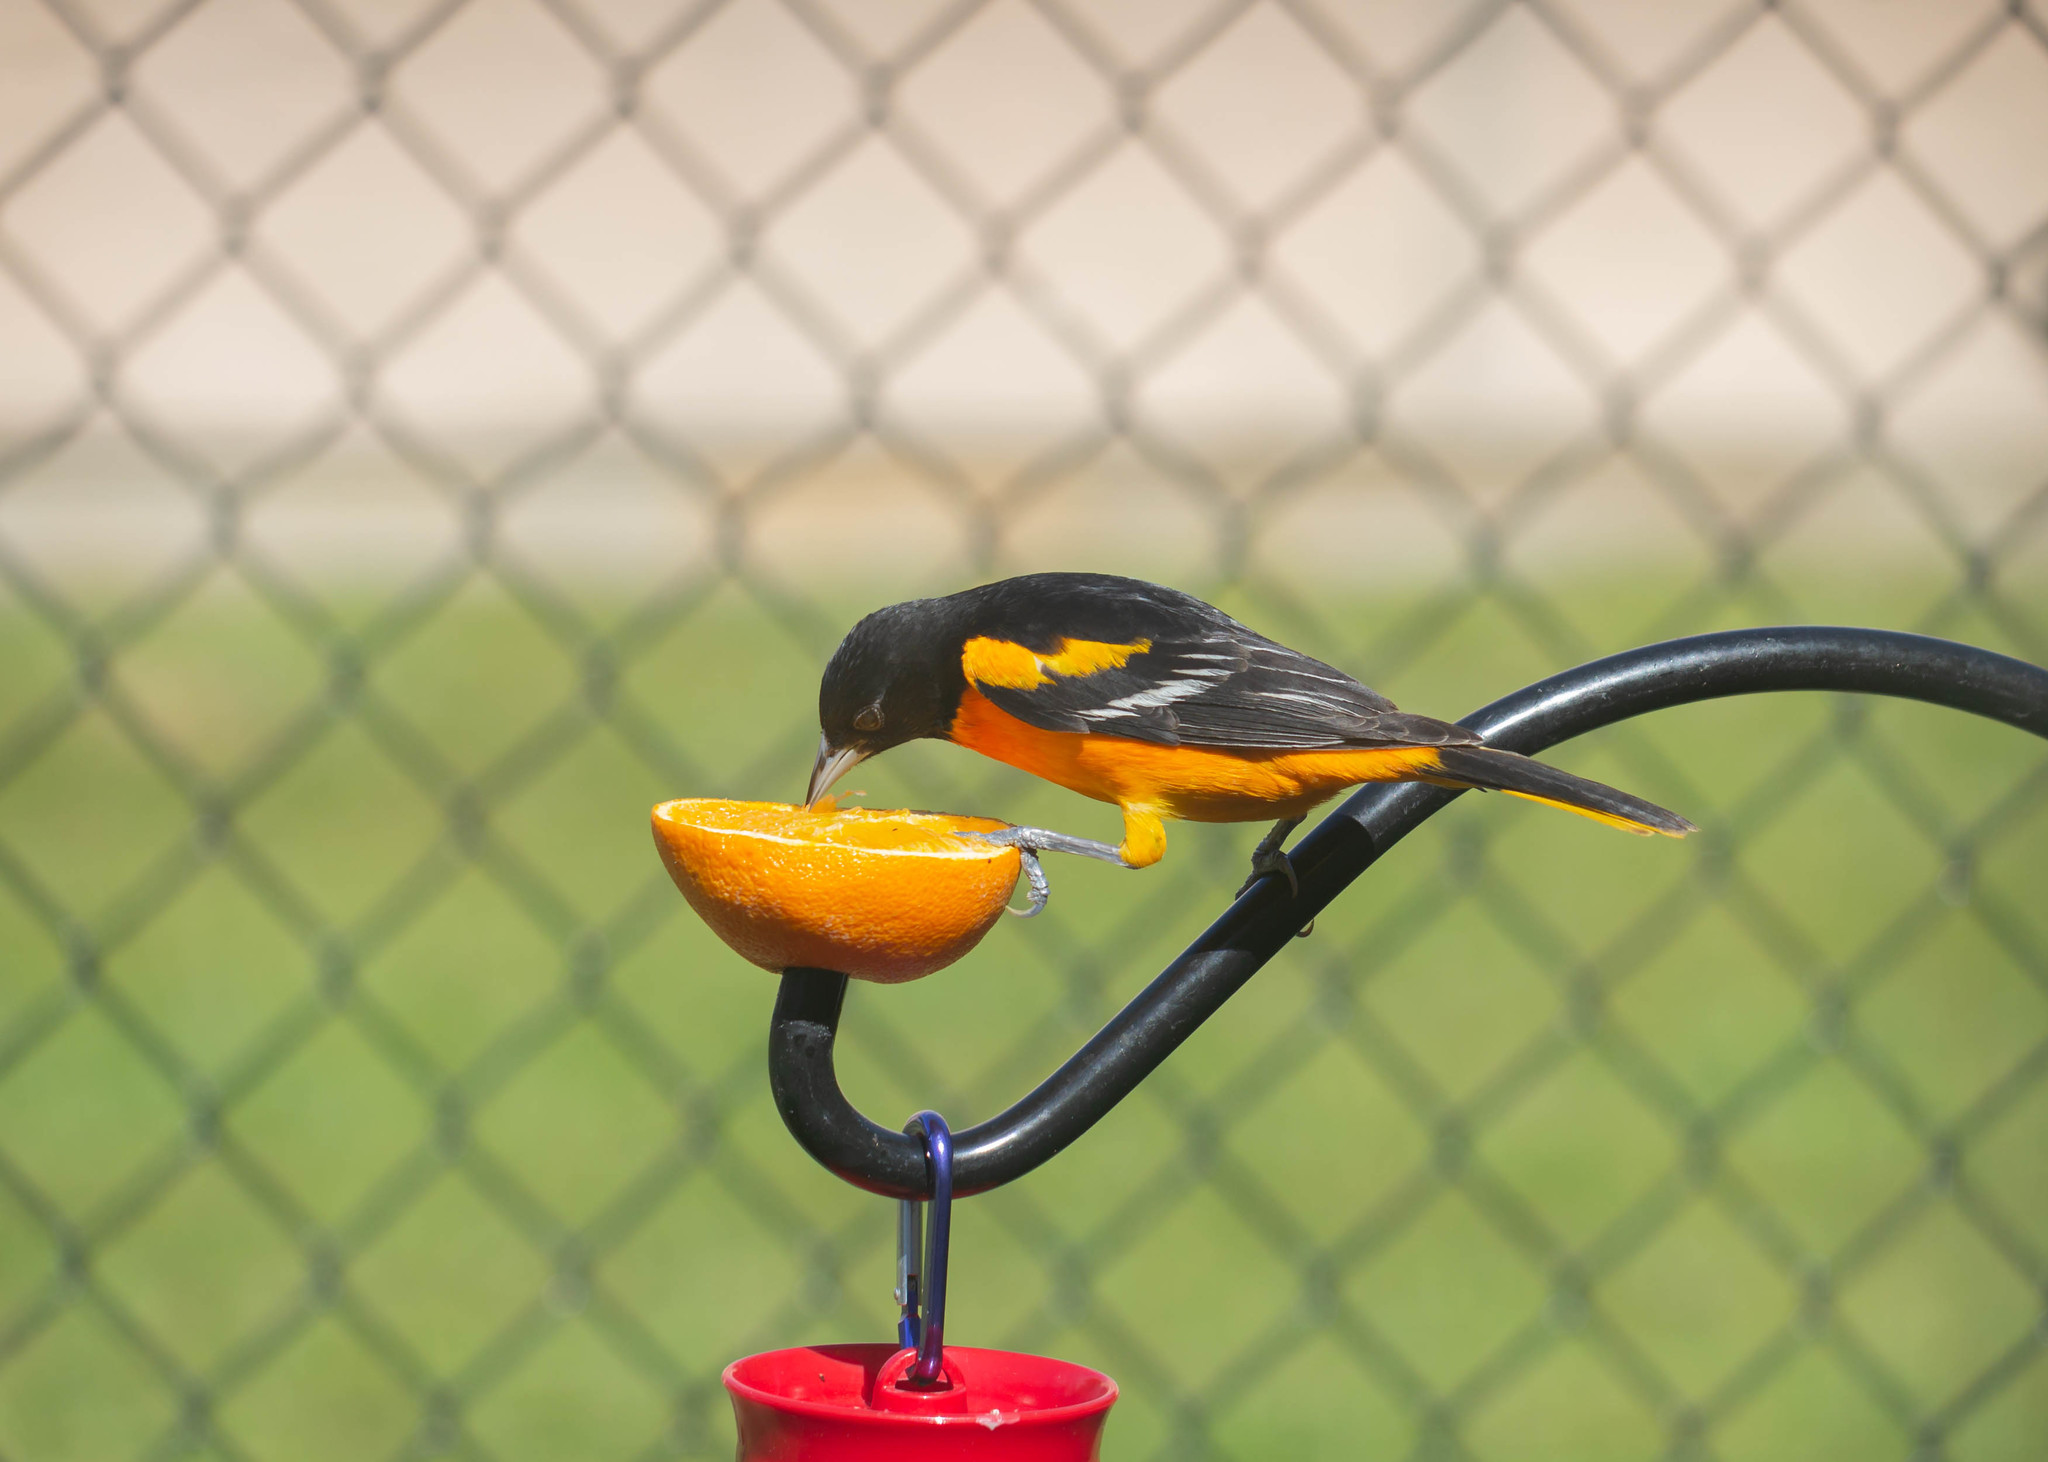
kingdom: Animalia
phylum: Chordata
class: Aves
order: Passeriformes
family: Icteridae
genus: Icterus
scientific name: Icterus galbula
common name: Baltimore oriole
